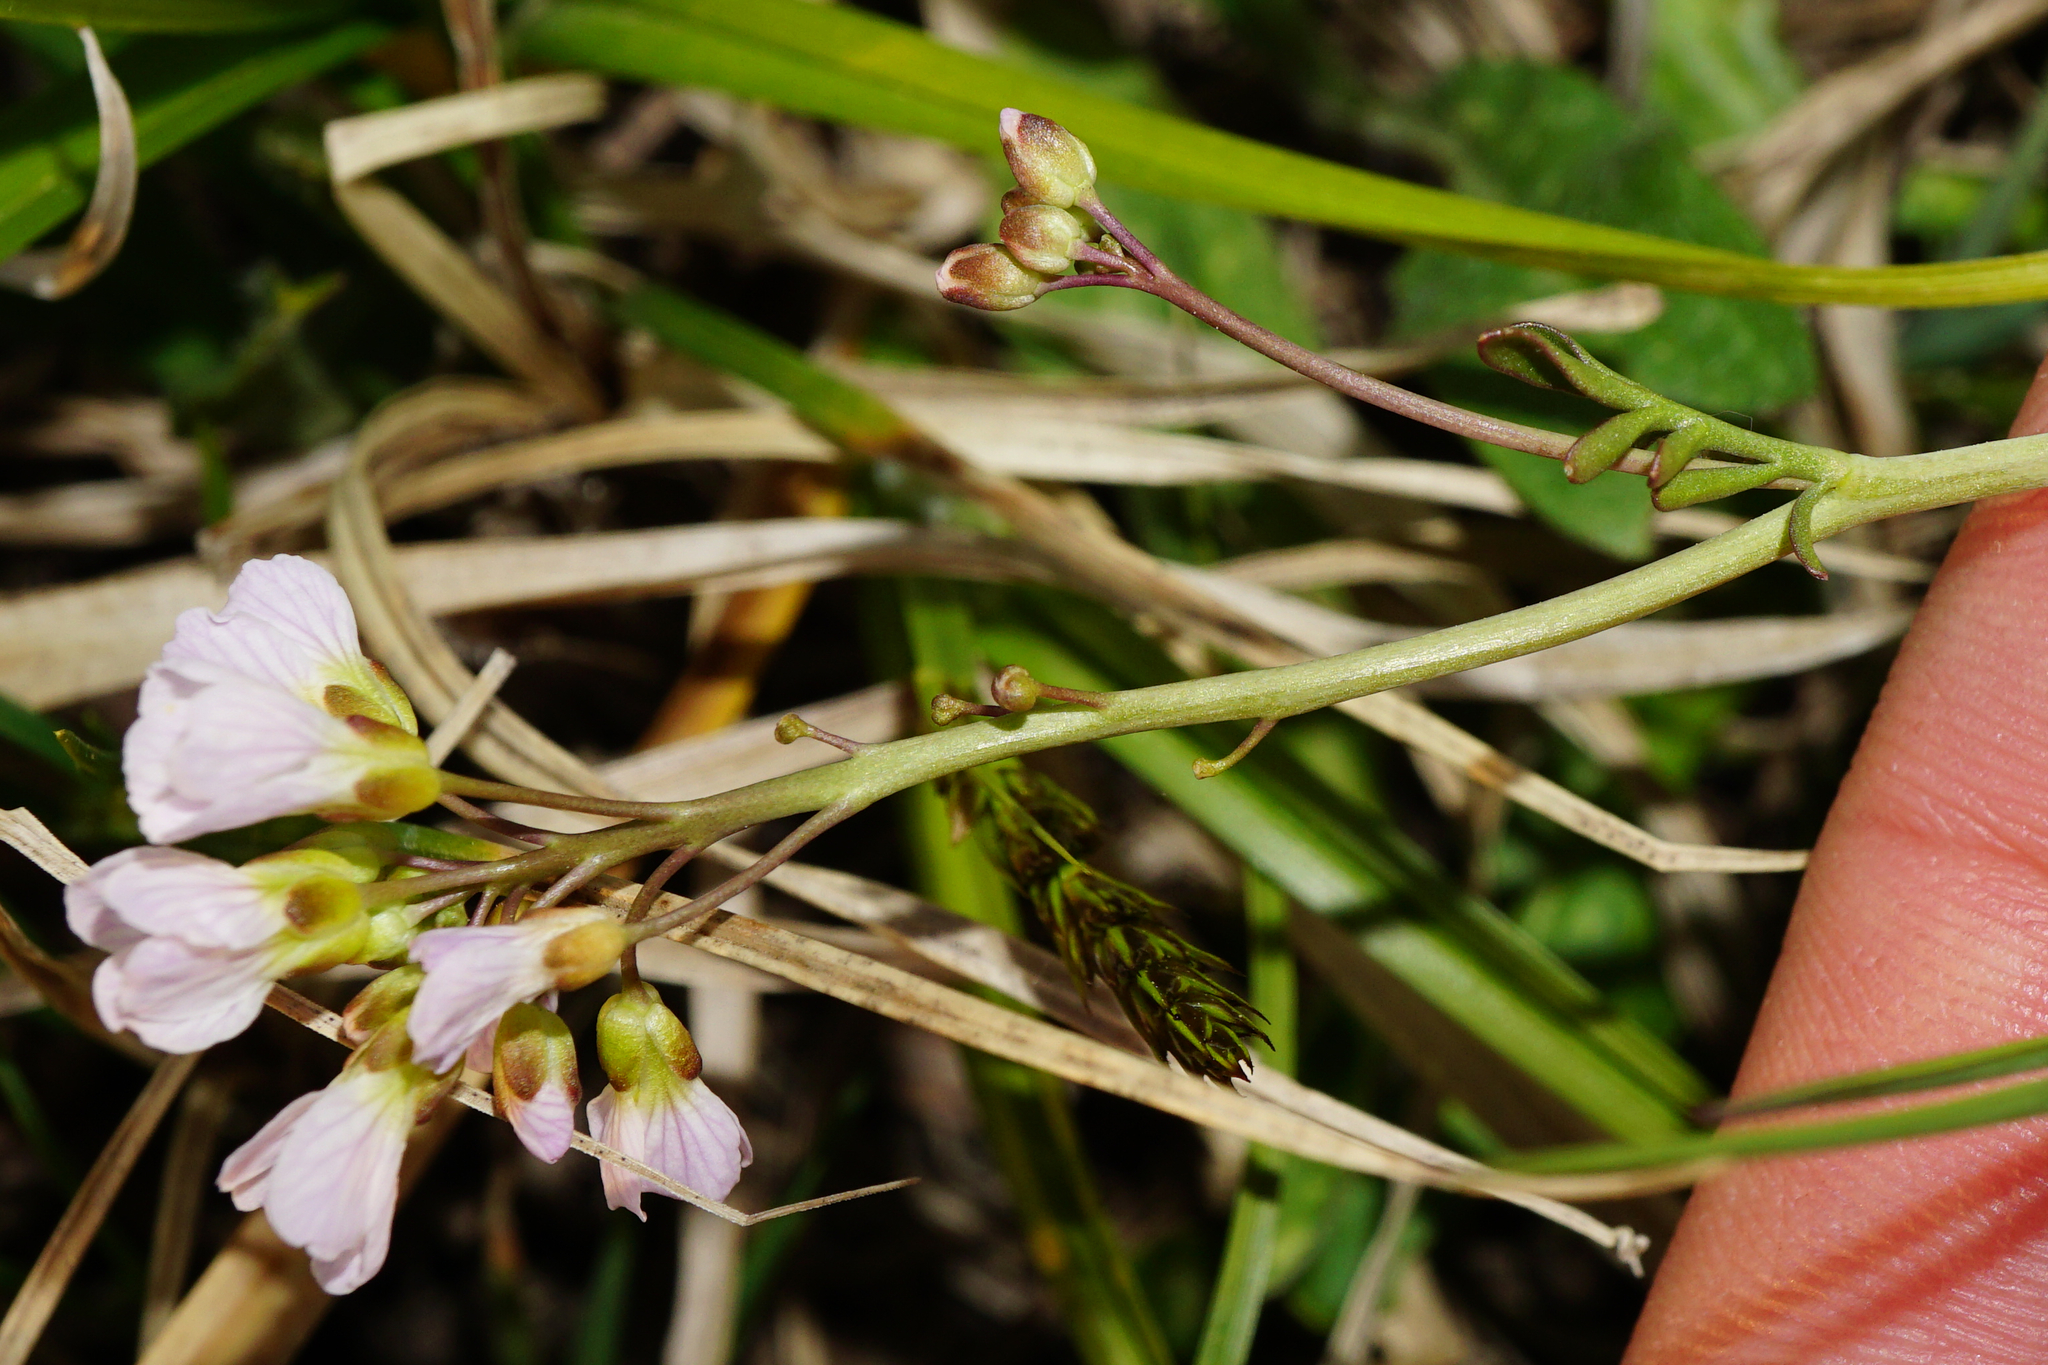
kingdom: Plantae
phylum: Tracheophyta
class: Magnoliopsida
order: Brassicales
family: Brassicaceae
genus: Cardamine
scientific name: Cardamine pratensis
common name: Cuckoo flower
